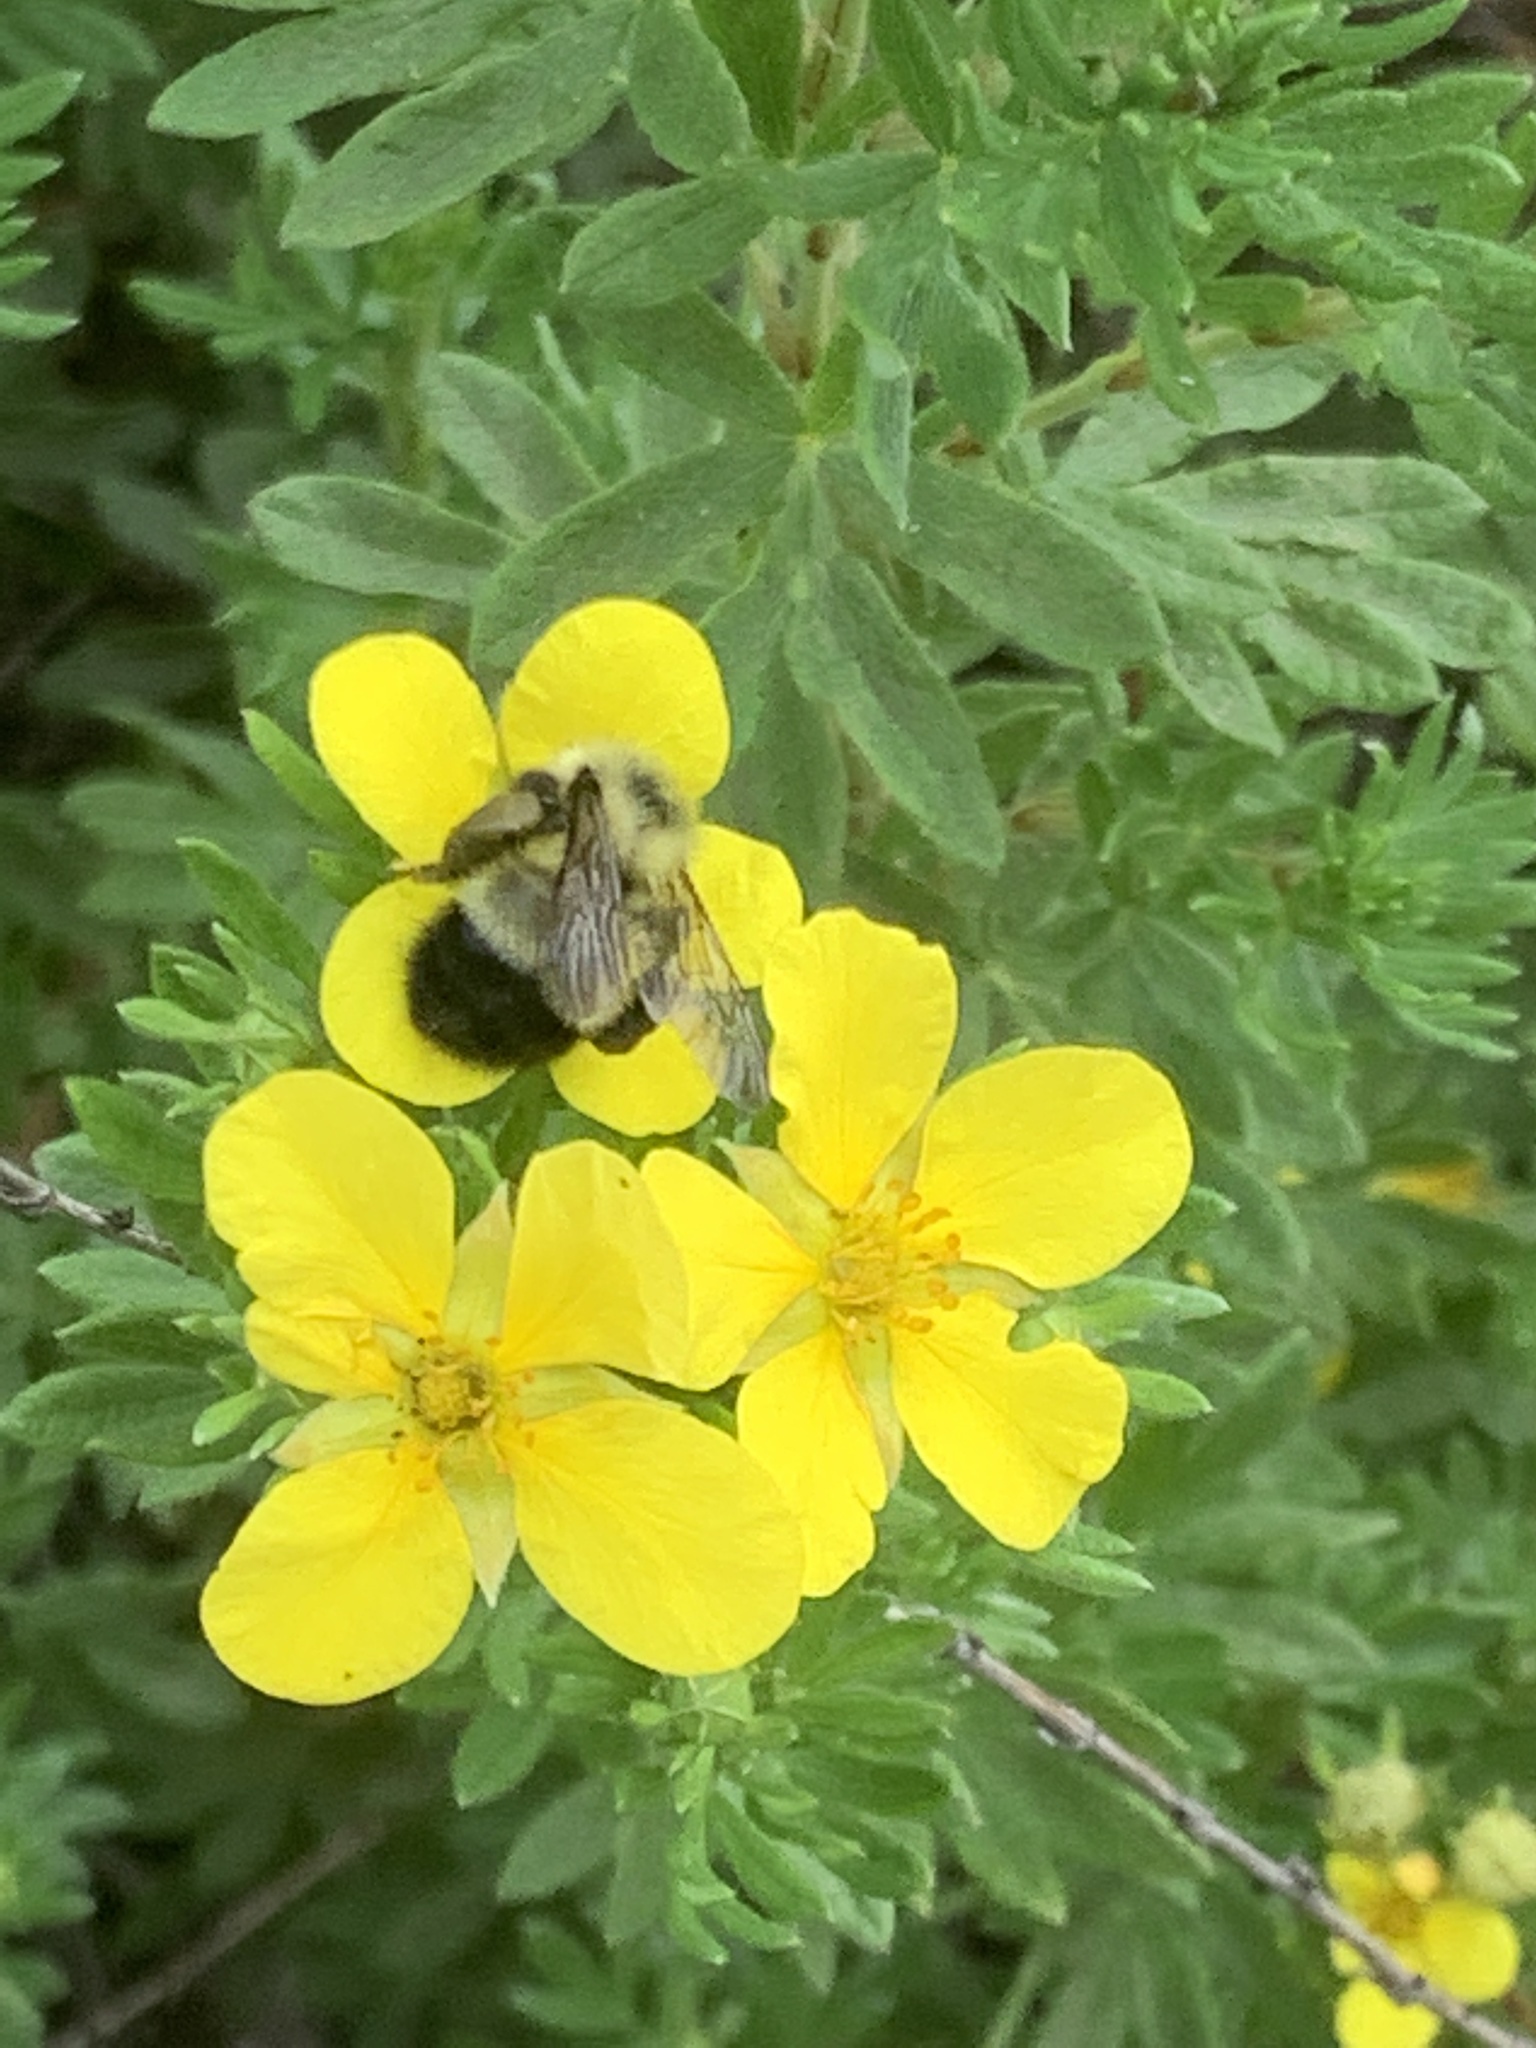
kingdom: Animalia
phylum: Arthropoda
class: Insecta
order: Hymenoptera
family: Apidae
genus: Bombus
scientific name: Bombus vagans
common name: Half-black bumble bee
